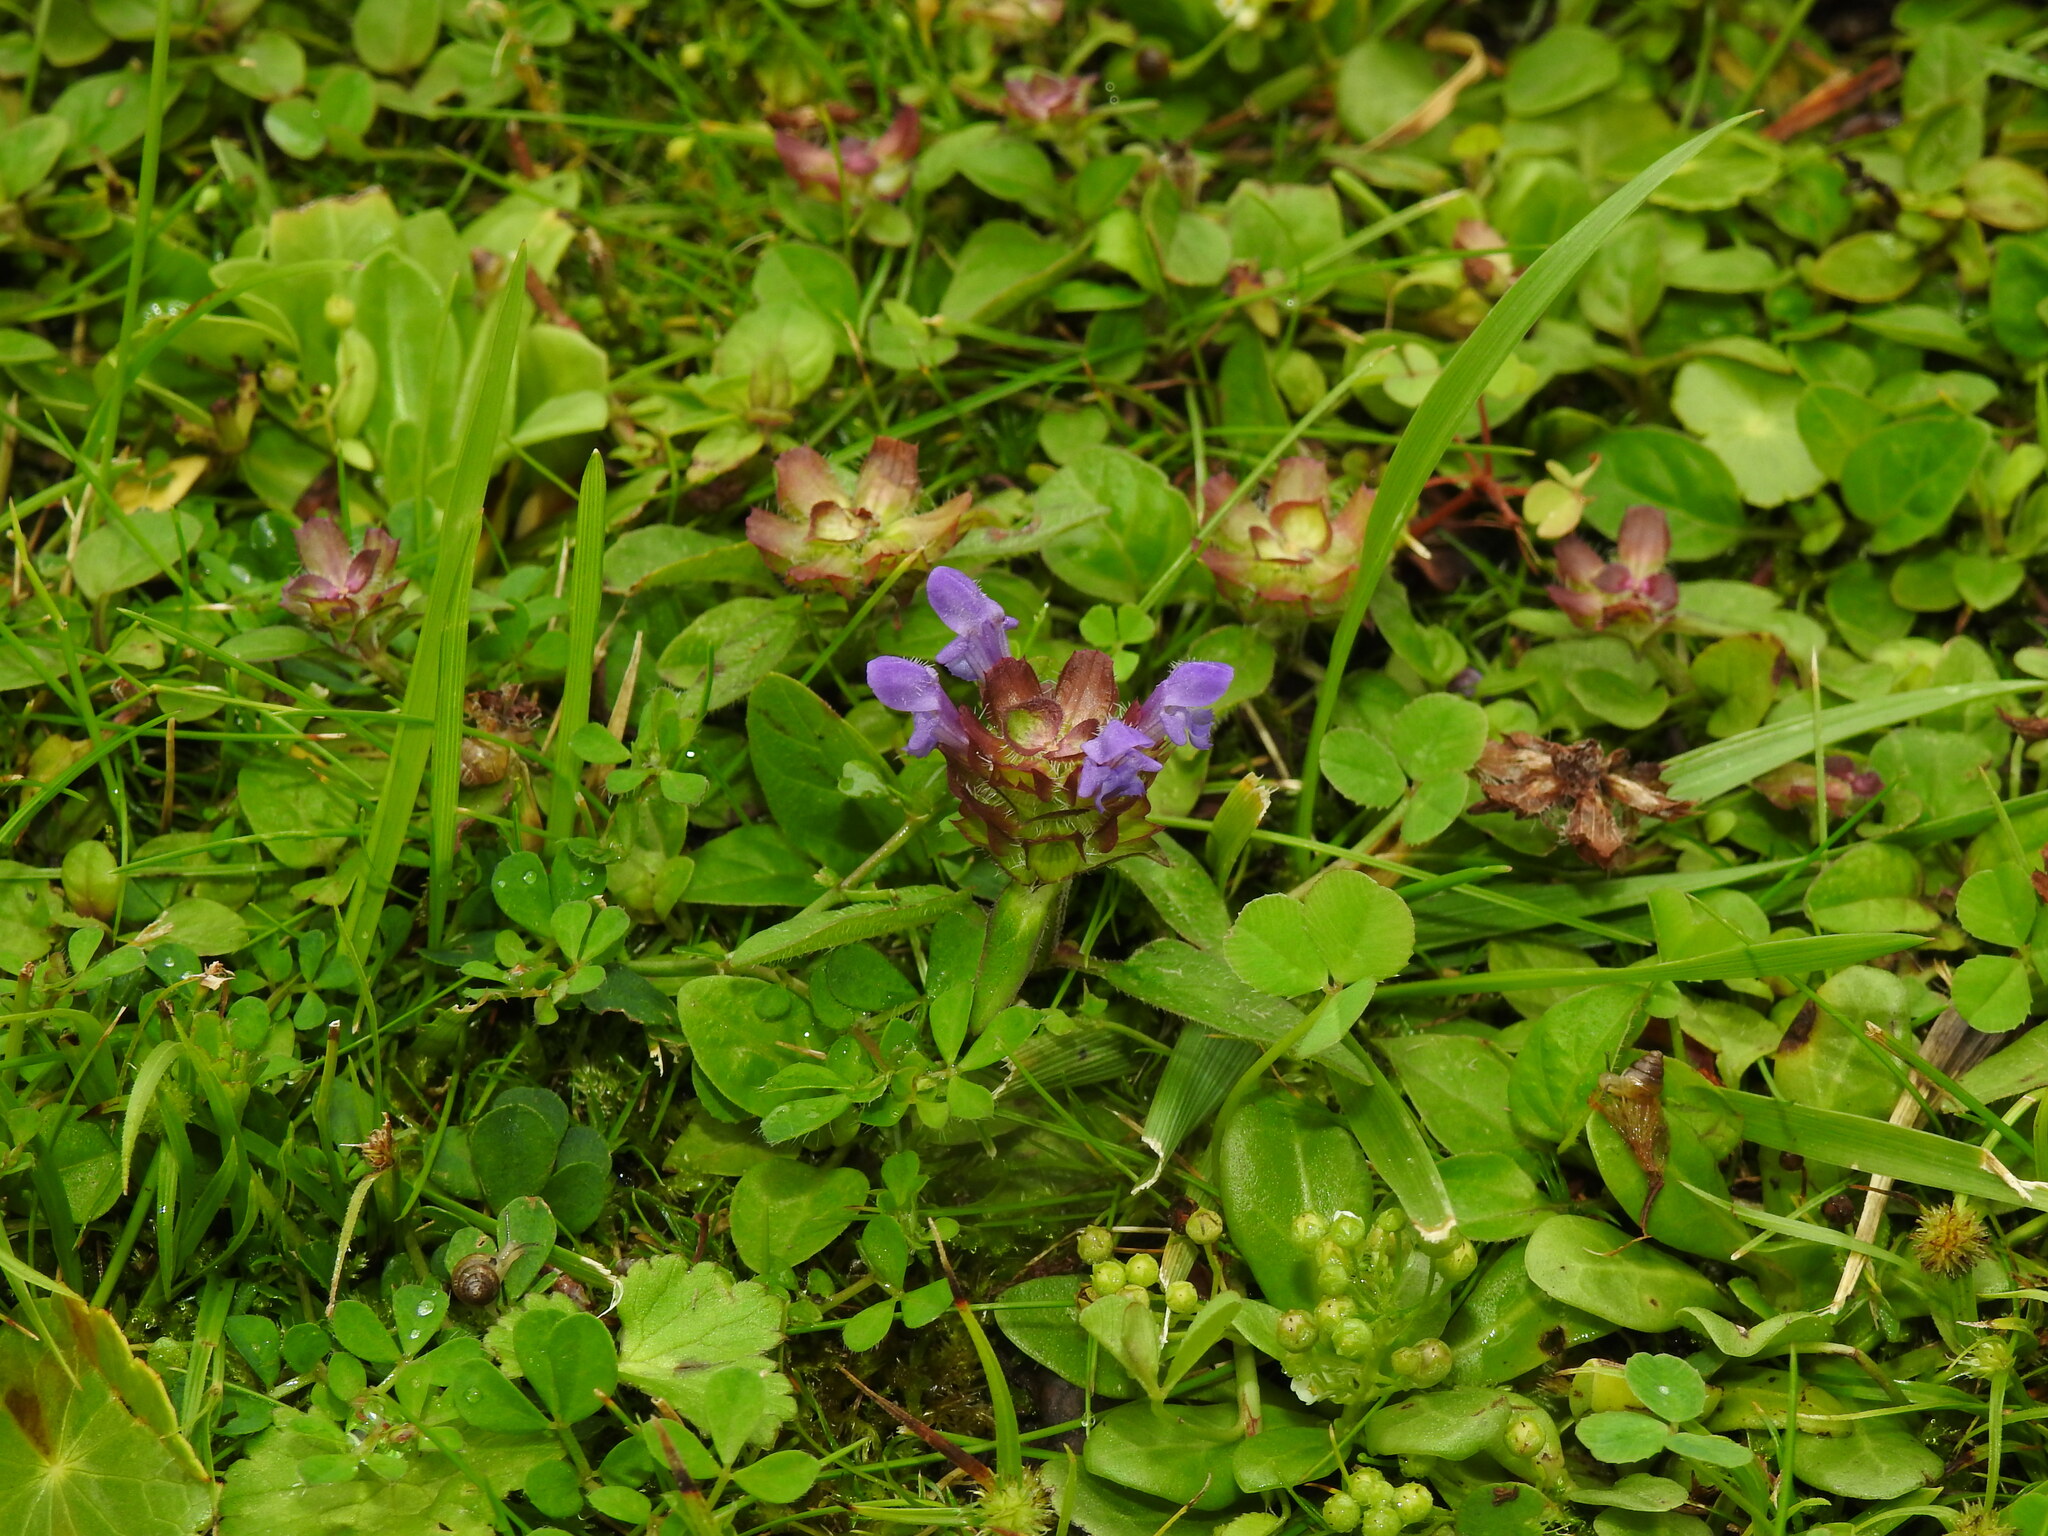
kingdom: Plantae
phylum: Tracheophyta
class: Magnoliopsida
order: Lamiales
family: Lamiaceae
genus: Prunella
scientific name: Prunella vulgaris
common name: Heal-all
